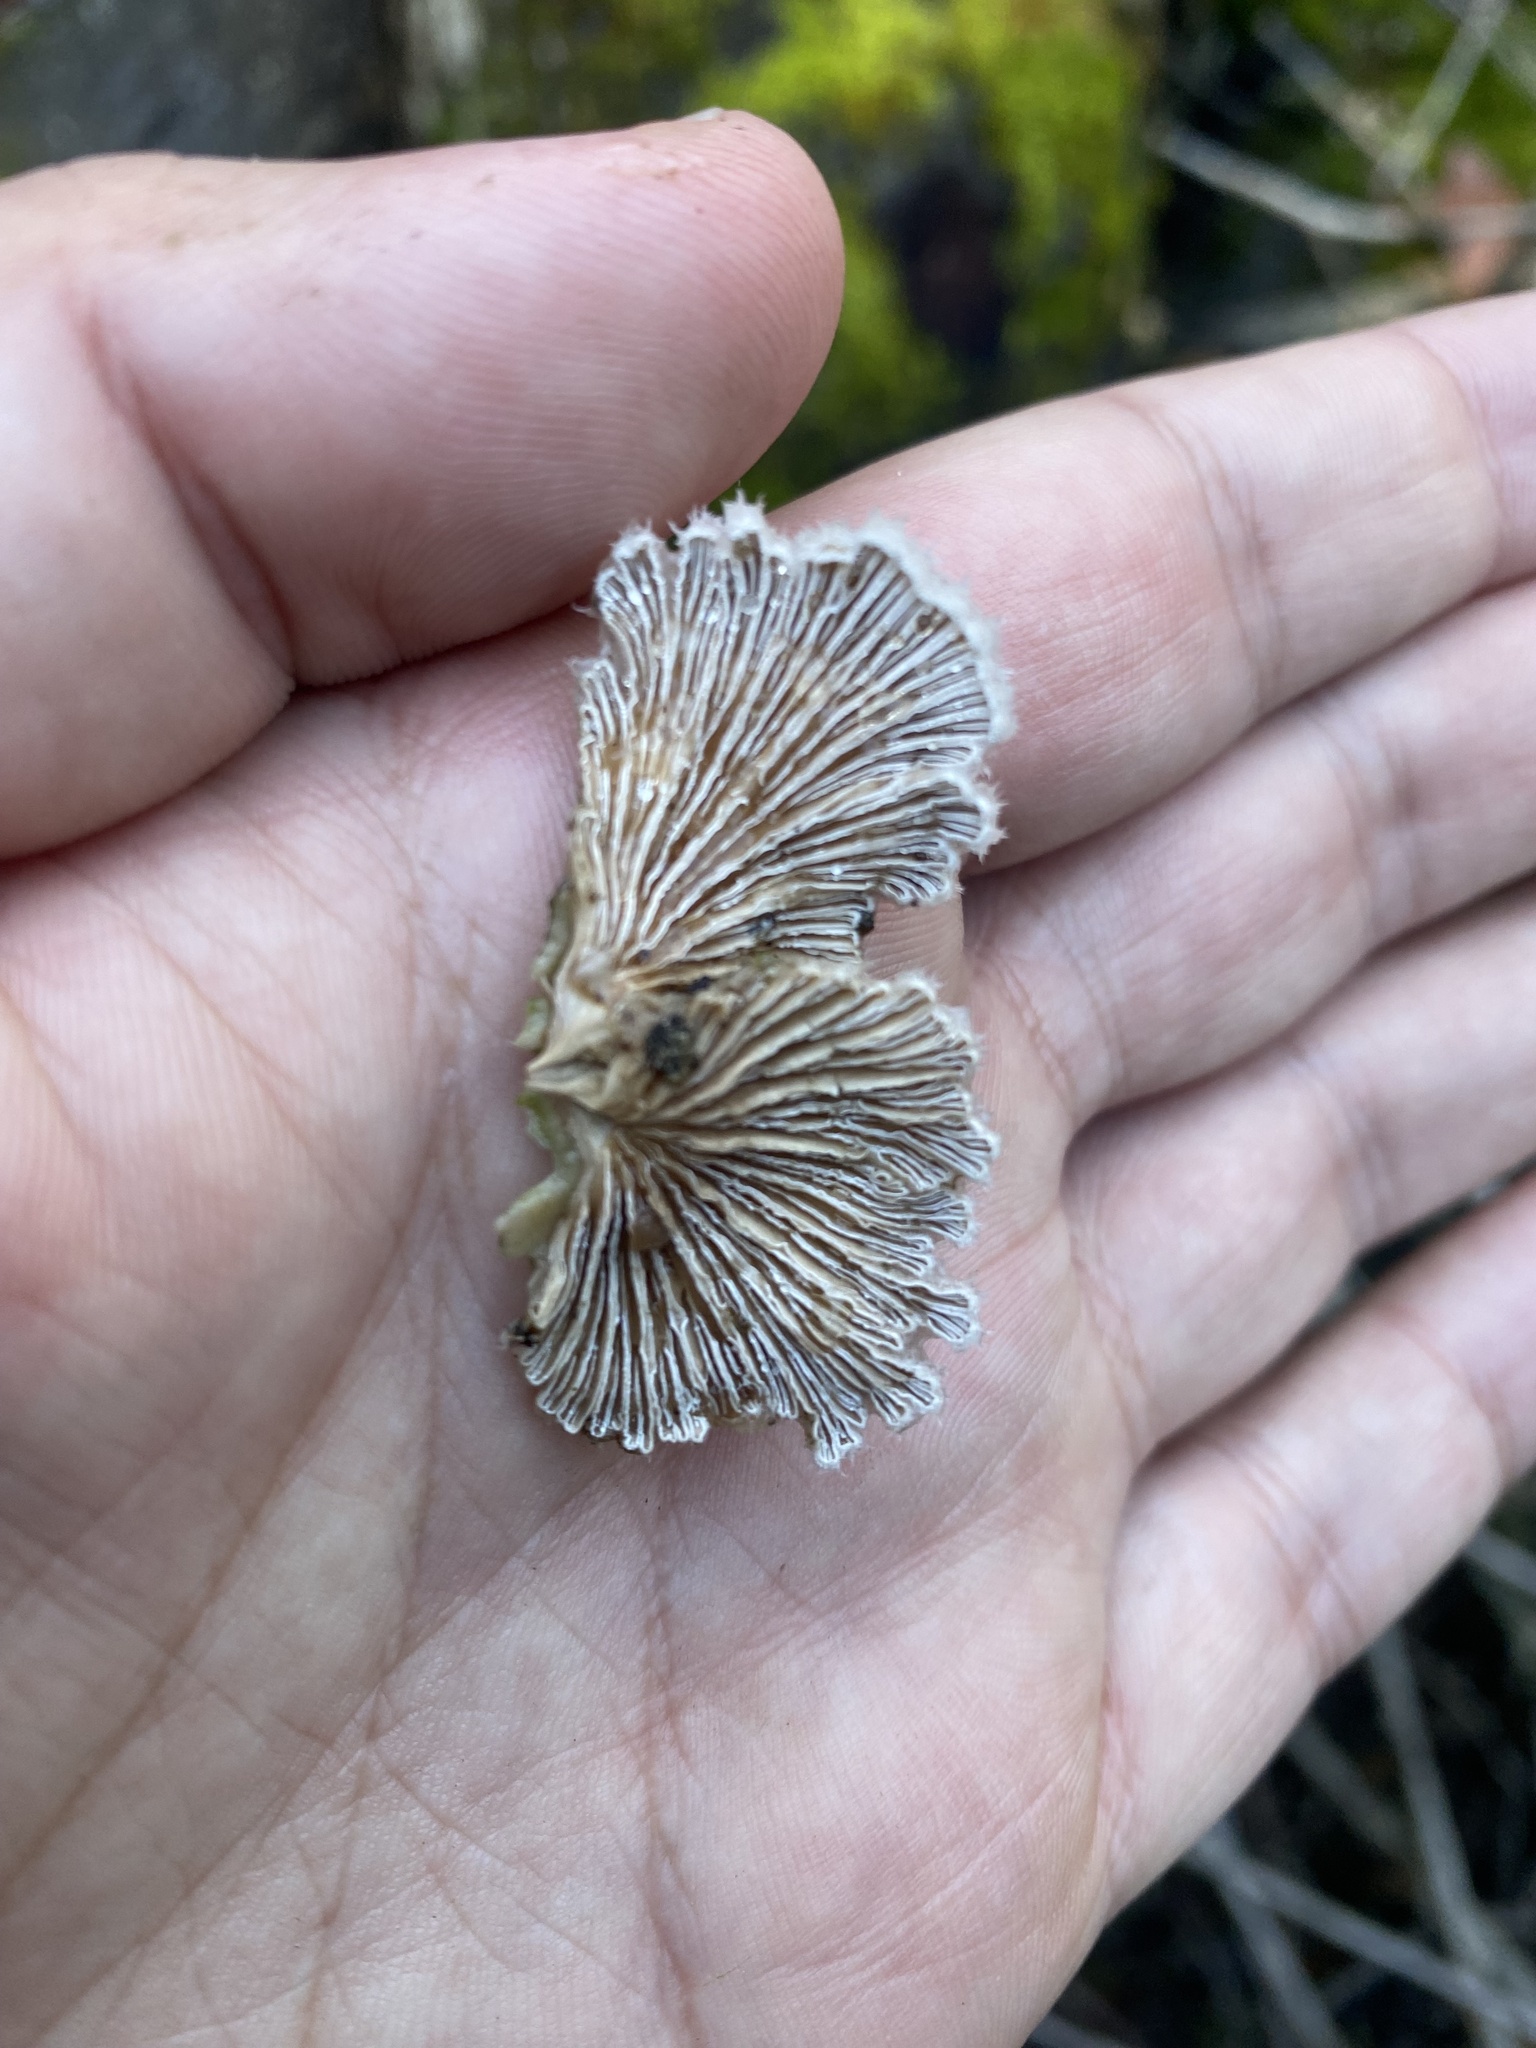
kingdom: Fungi
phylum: Basidiomycota
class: Agaricomycetes
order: Agaricales
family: Schizophyllaceae
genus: Schizophyllum
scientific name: Schizophyllum commune
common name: Common porecrust
